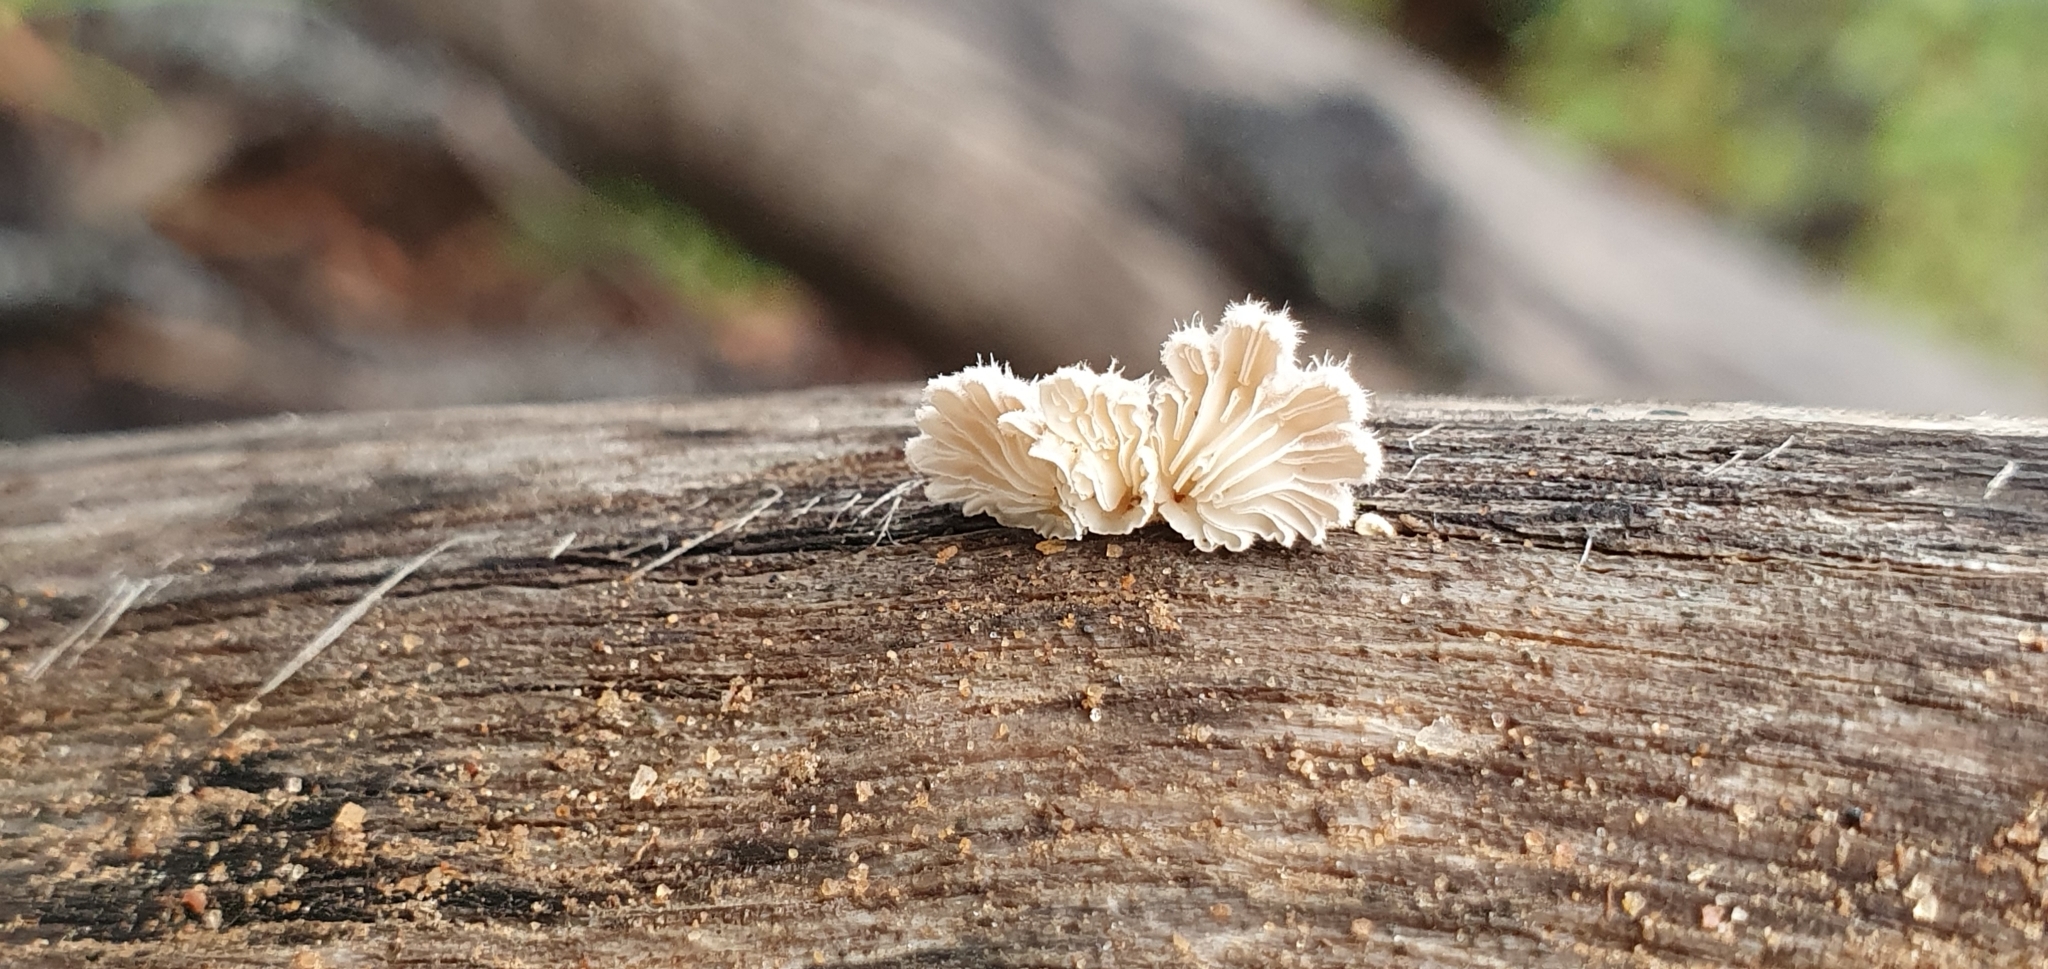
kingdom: Fungi
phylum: Basidiomycota
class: Agaricomycetes
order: Agaricales
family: Schizophyllaceae
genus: Schizophyllum
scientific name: Schizophyllum commune
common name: Common porecrust
